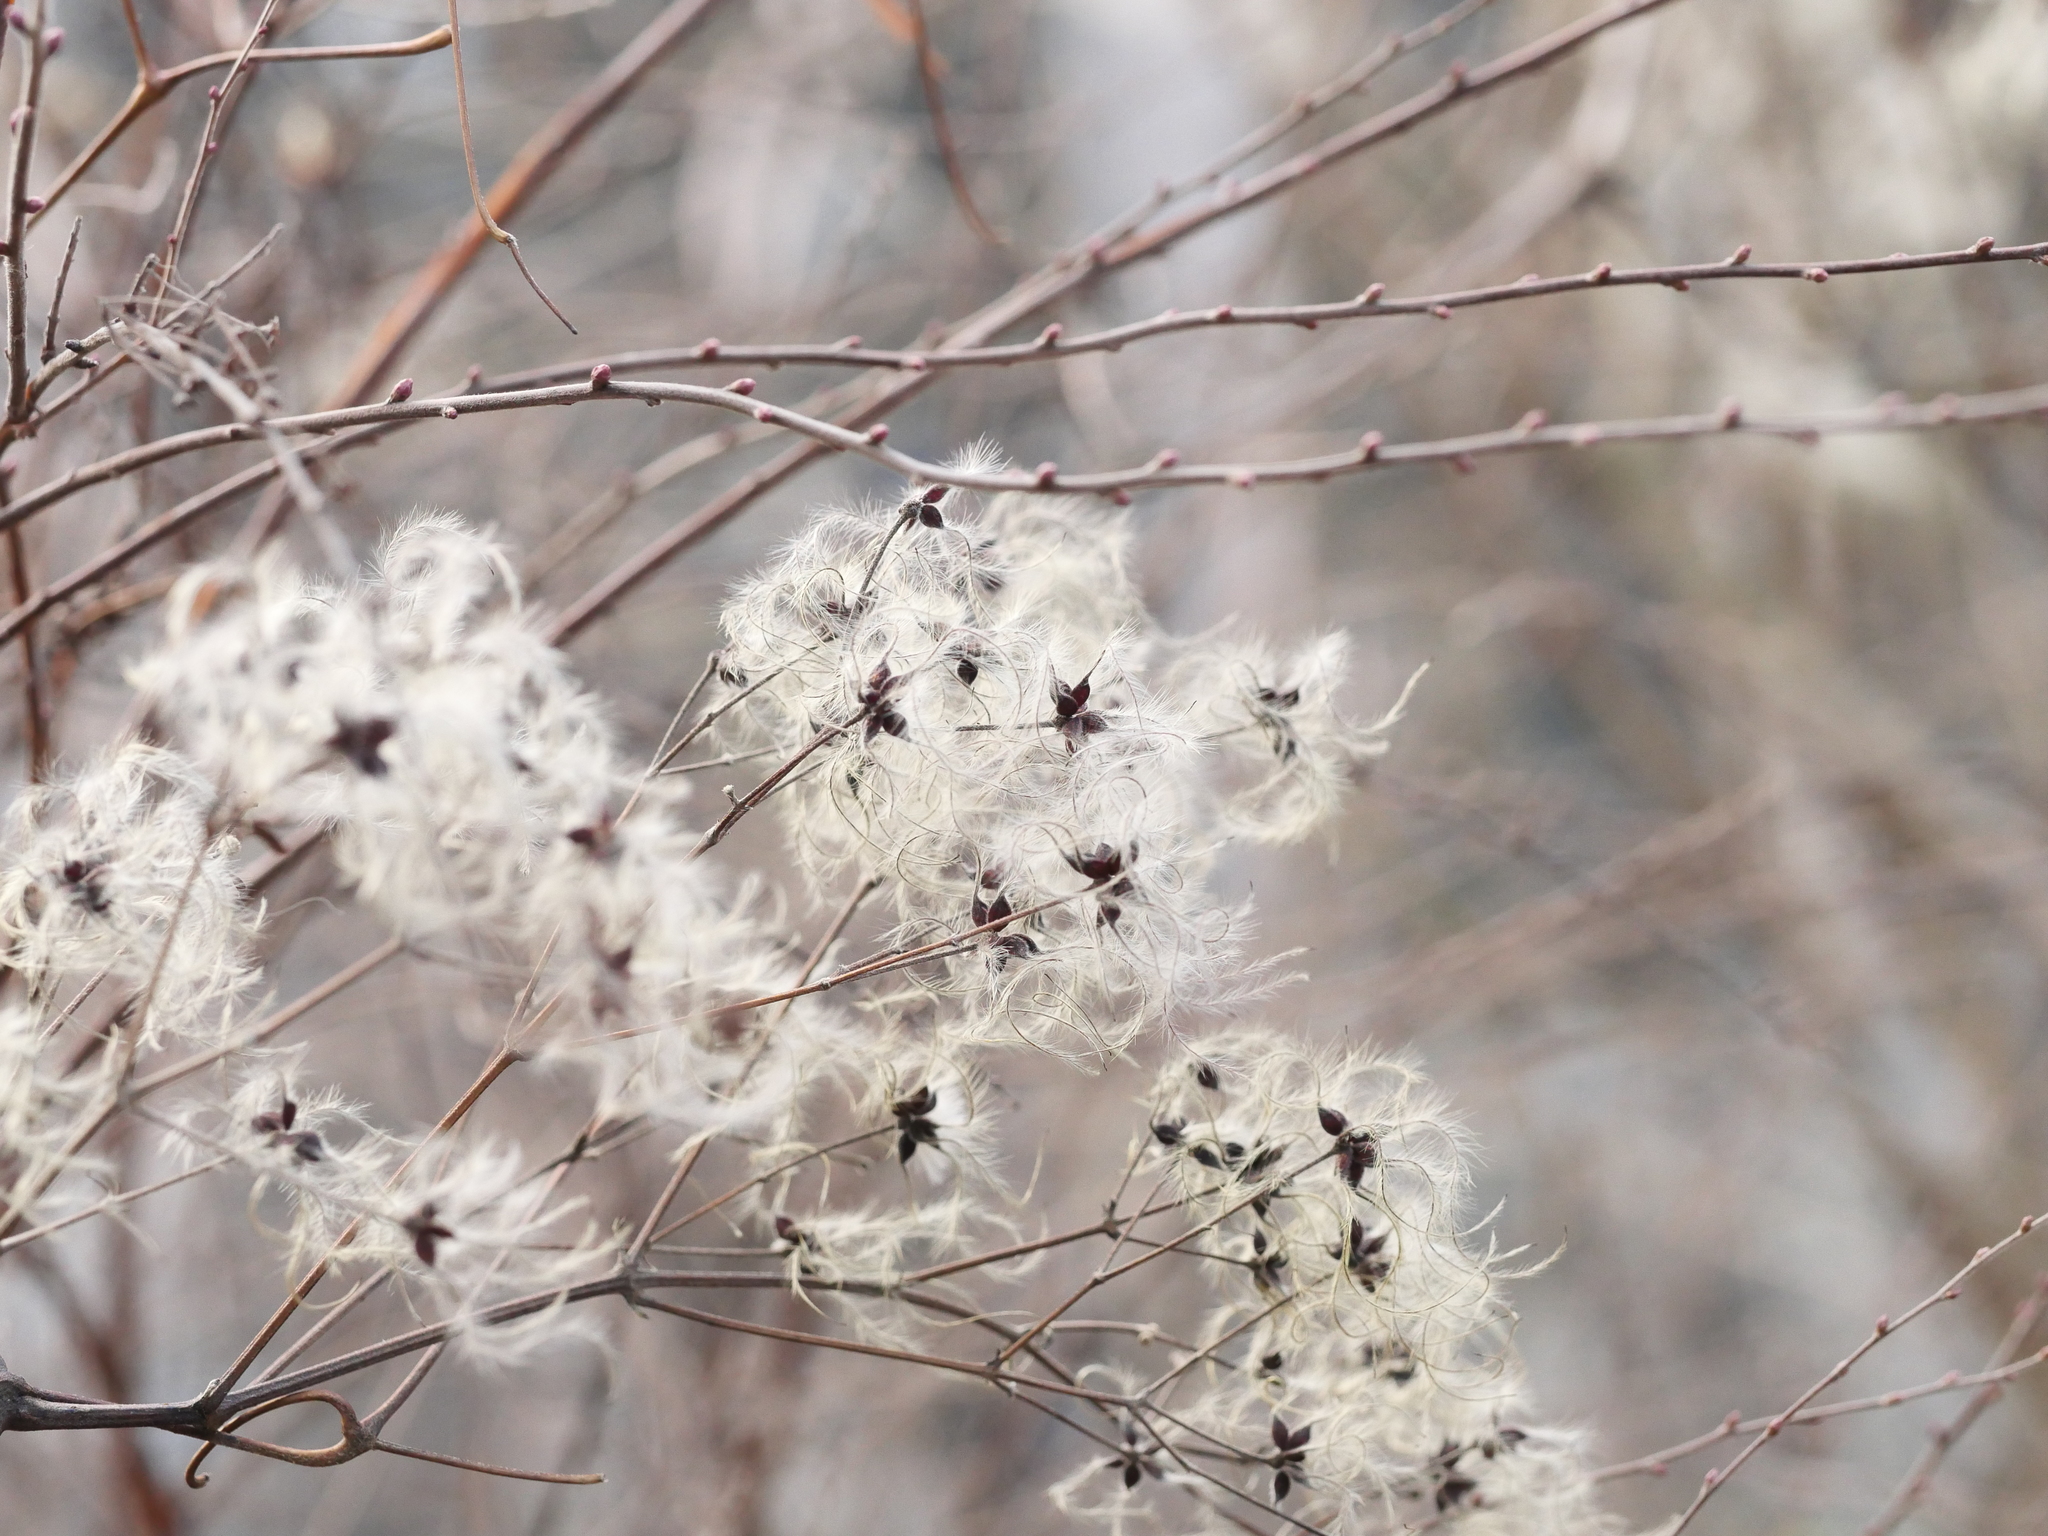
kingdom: Plantae
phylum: Tracheophyta
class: Magnoliopsida
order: Ranunculales
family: Ranunculaceae
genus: Clematis
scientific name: Clematis vitalba
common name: Evergreen clematis
